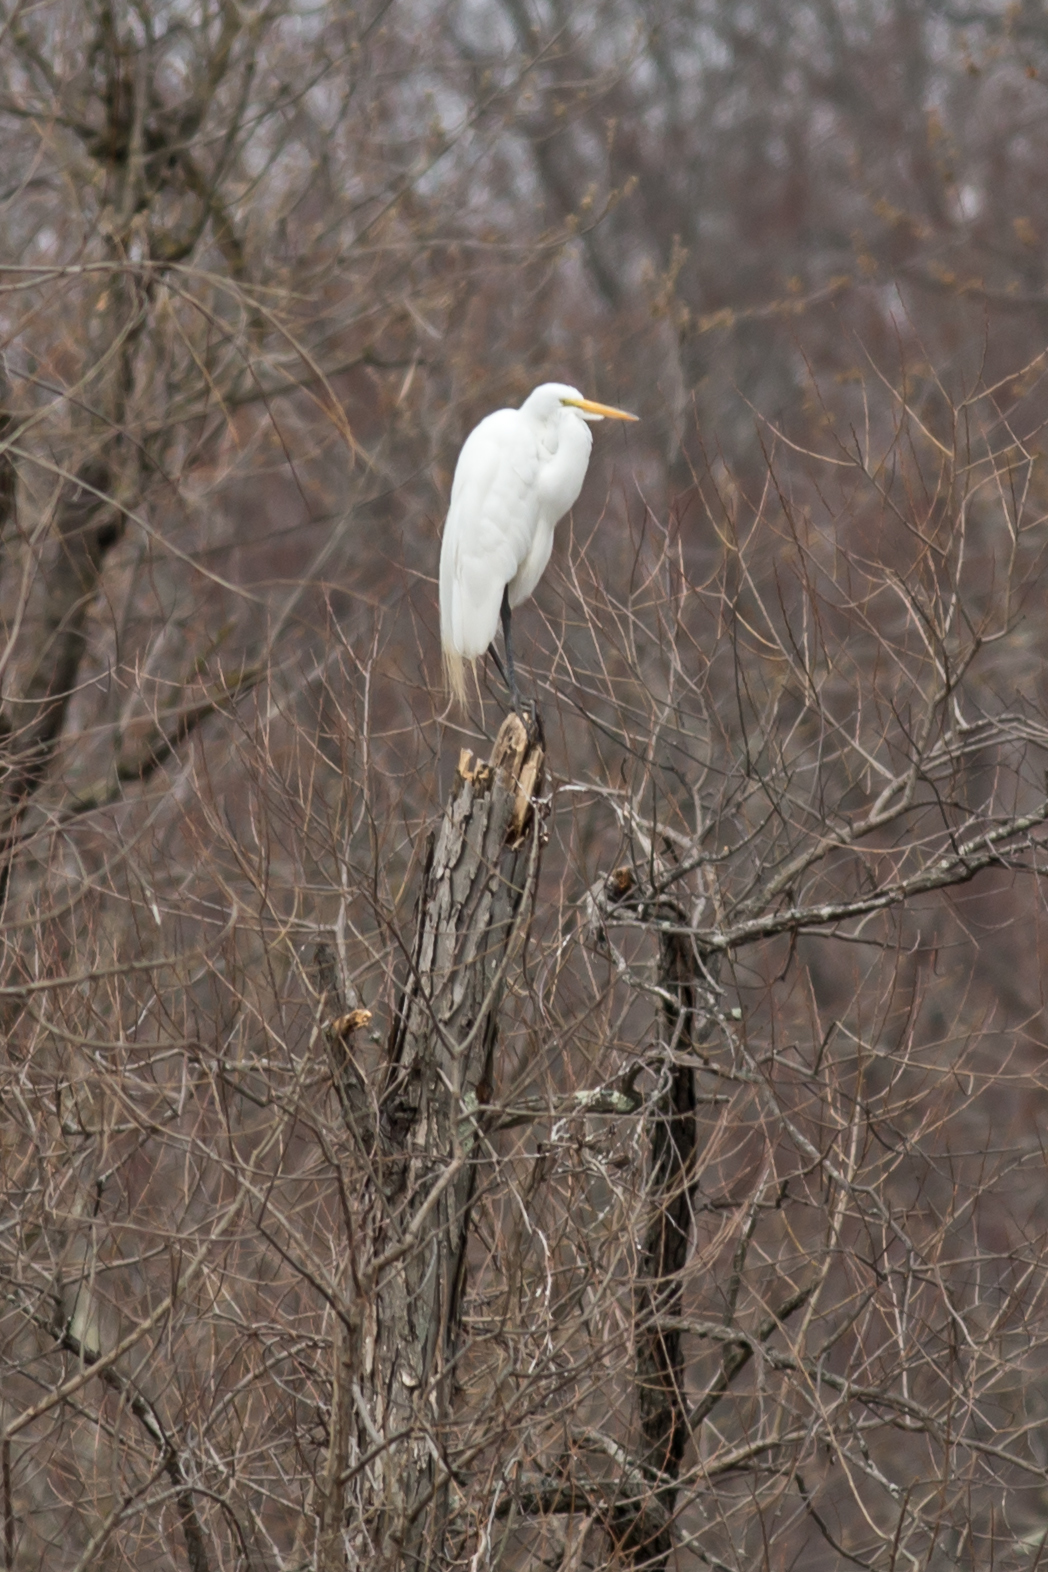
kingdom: Animalia
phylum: Chordata
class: Aves
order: Pelecaniformes
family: Ardeidae
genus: Ardea
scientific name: Ardea alba
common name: Great egret
